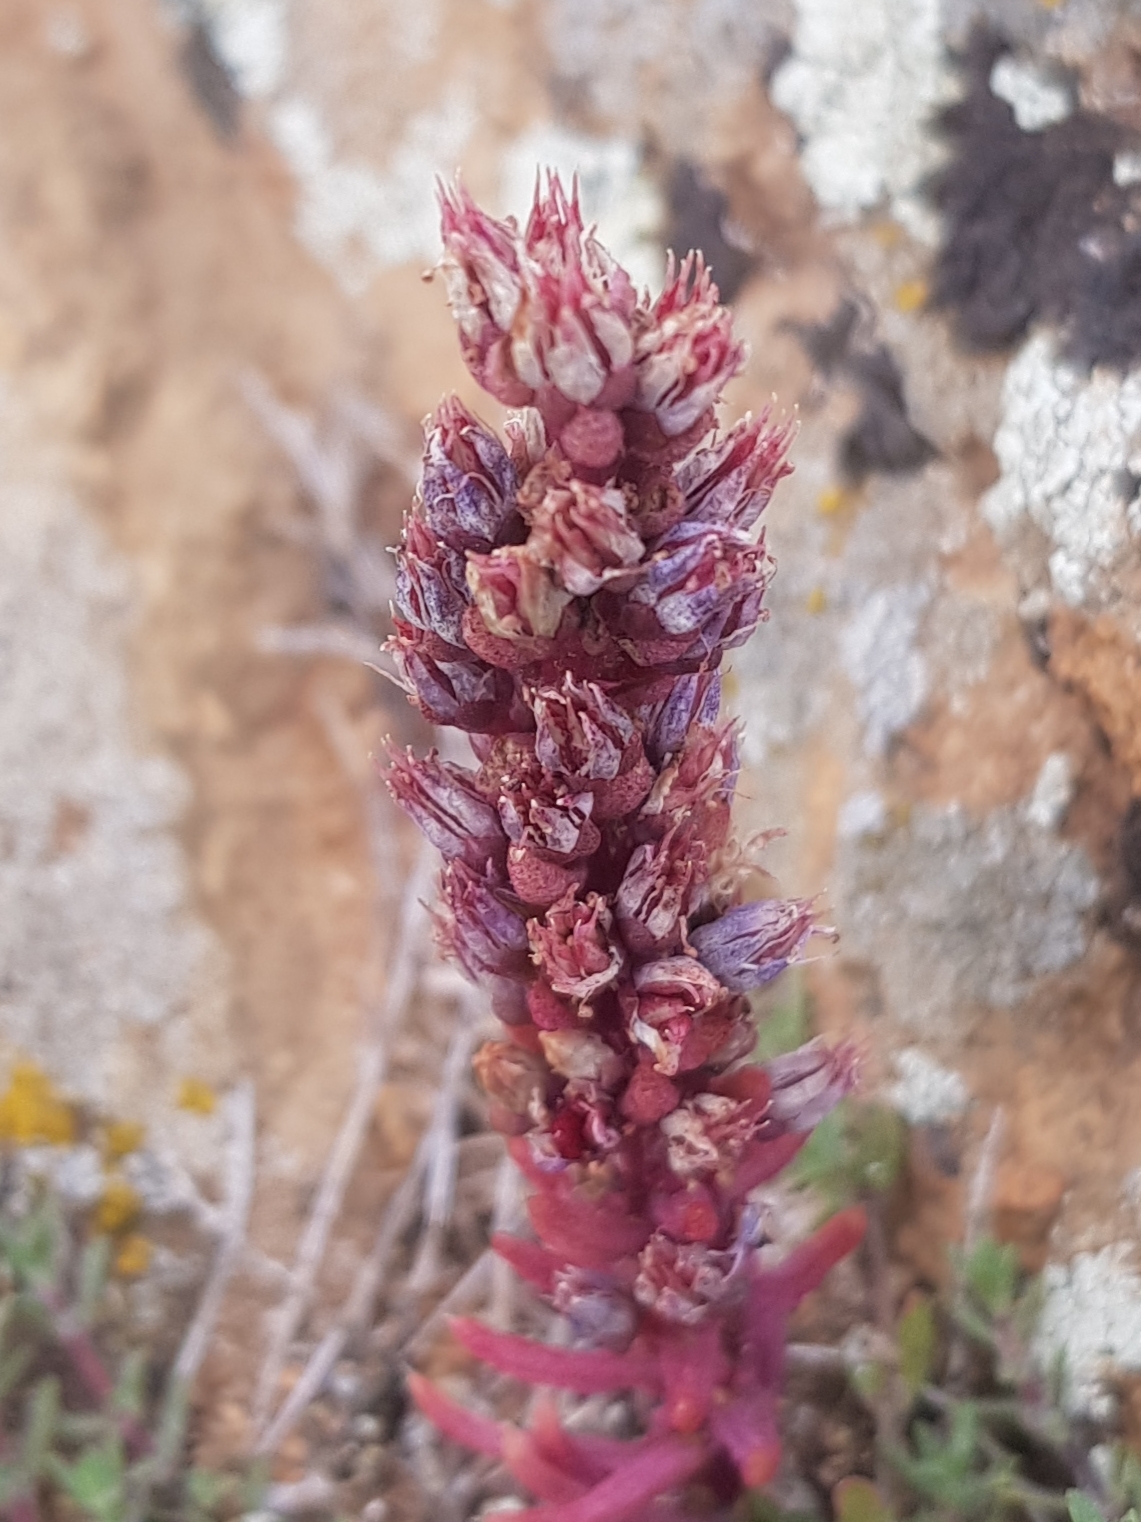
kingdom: Plantae
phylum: Tracheophyta
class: Magnoliopsida
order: Saxifragales
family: Crassulaceae
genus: Orostachys
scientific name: Orostachys spinosa
